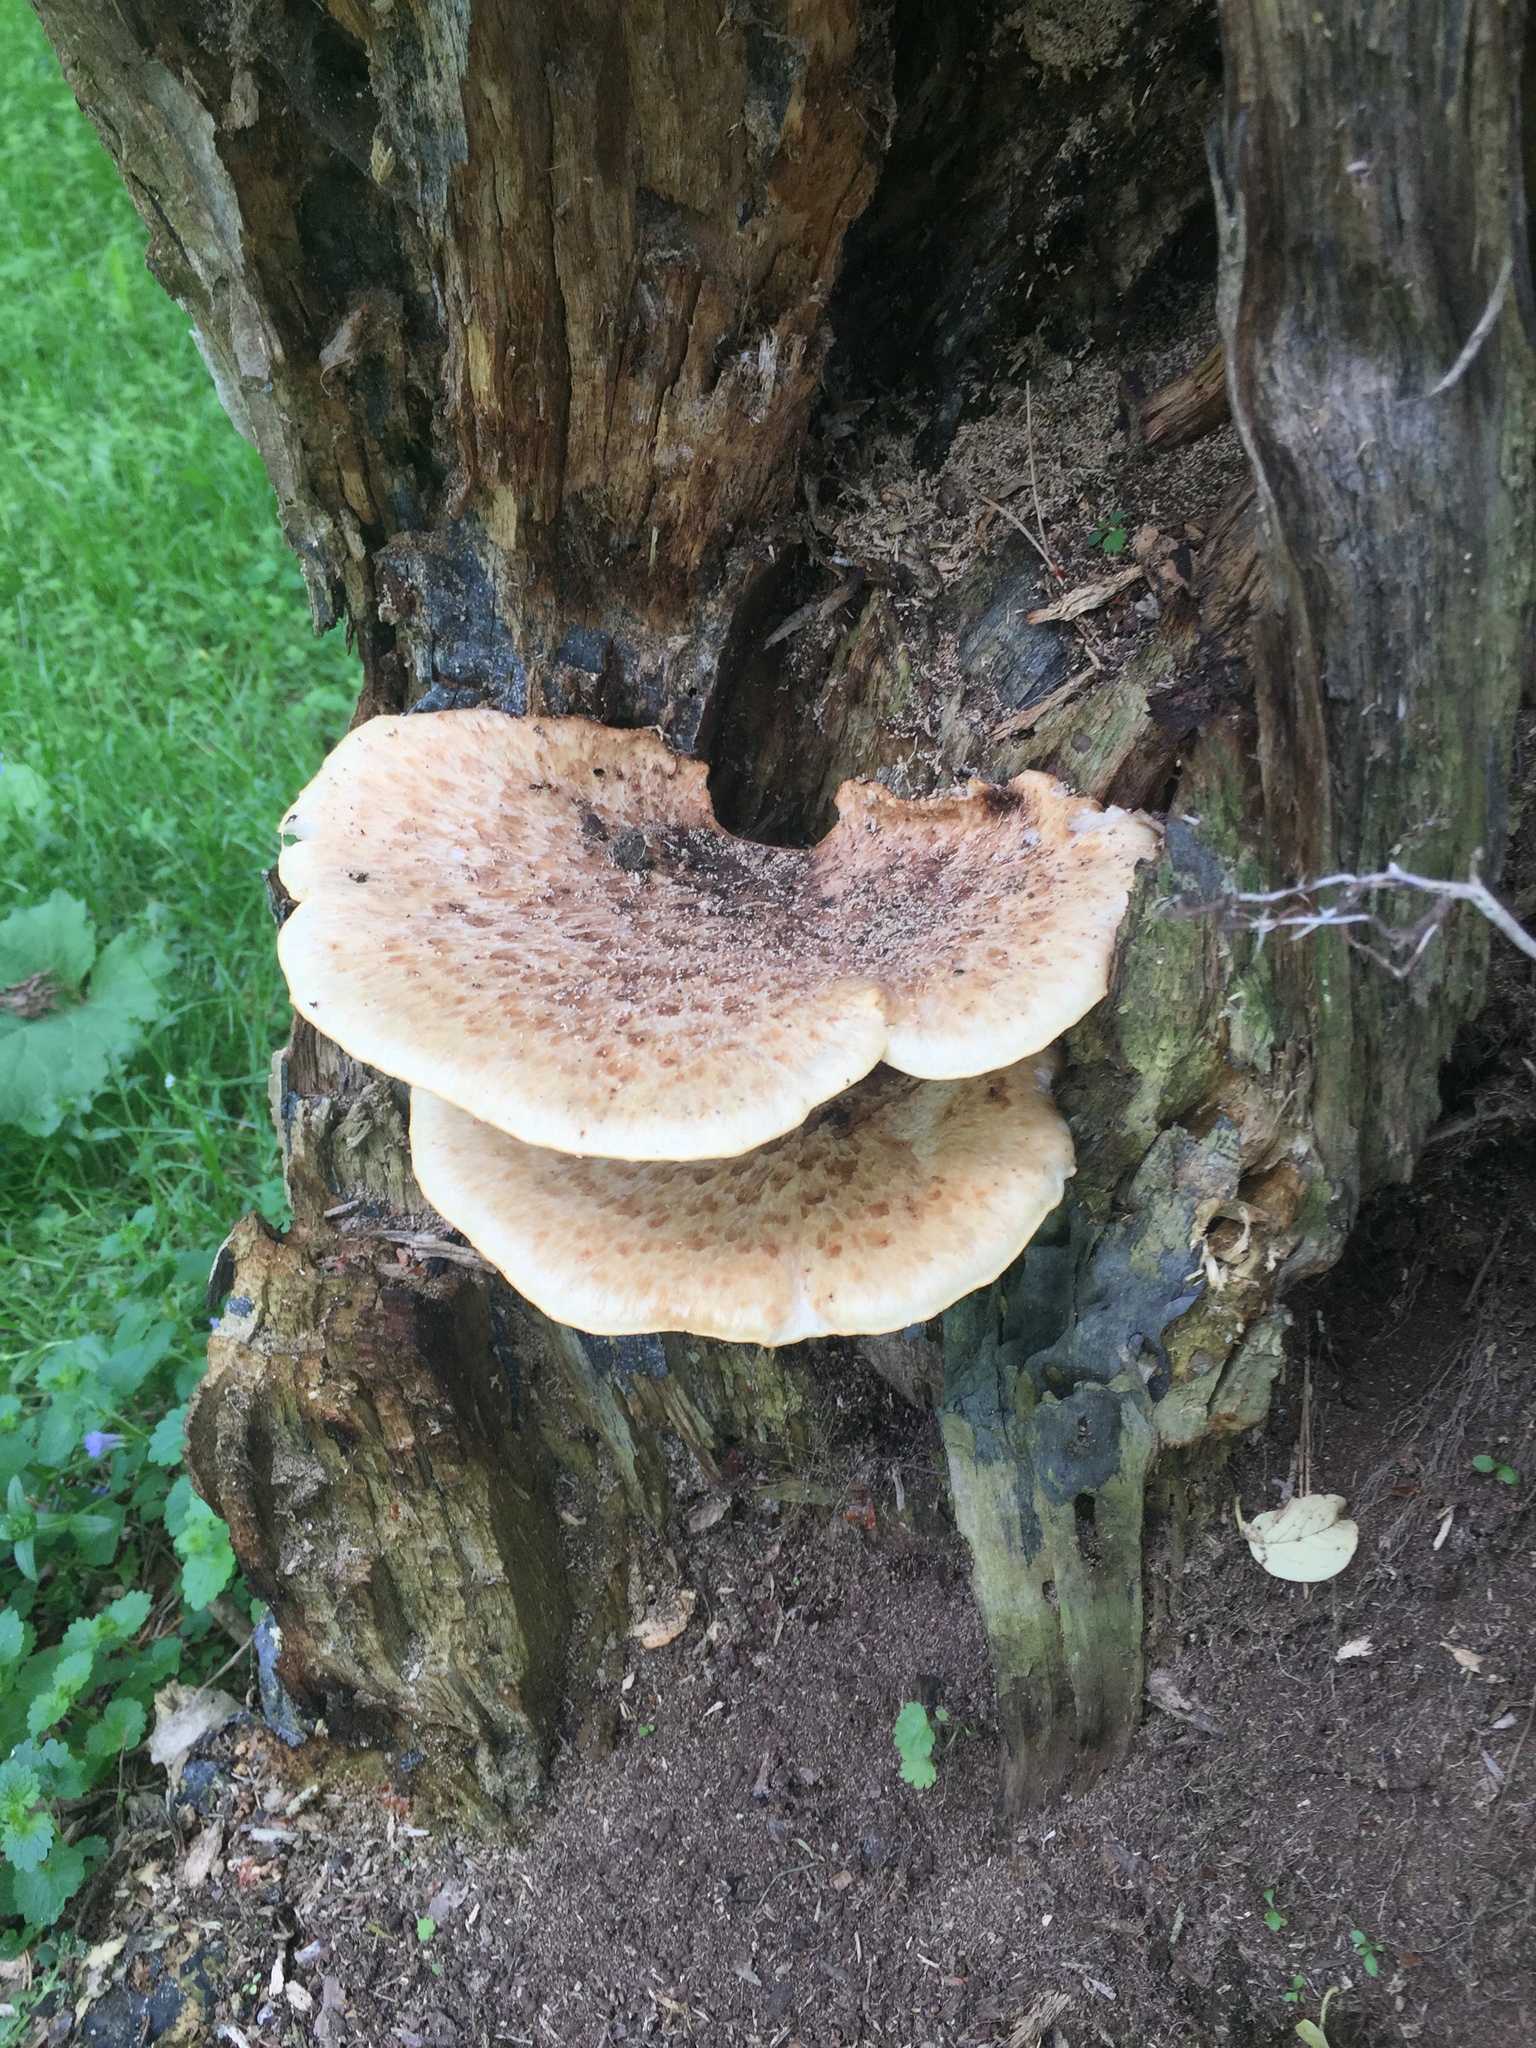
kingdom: Fungi
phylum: Basidiomycota
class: Agaricomycetes
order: Polyporales
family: Polyporaceae
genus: Cerioporus
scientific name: Cerioporus squamosus
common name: Dryad's saddle
